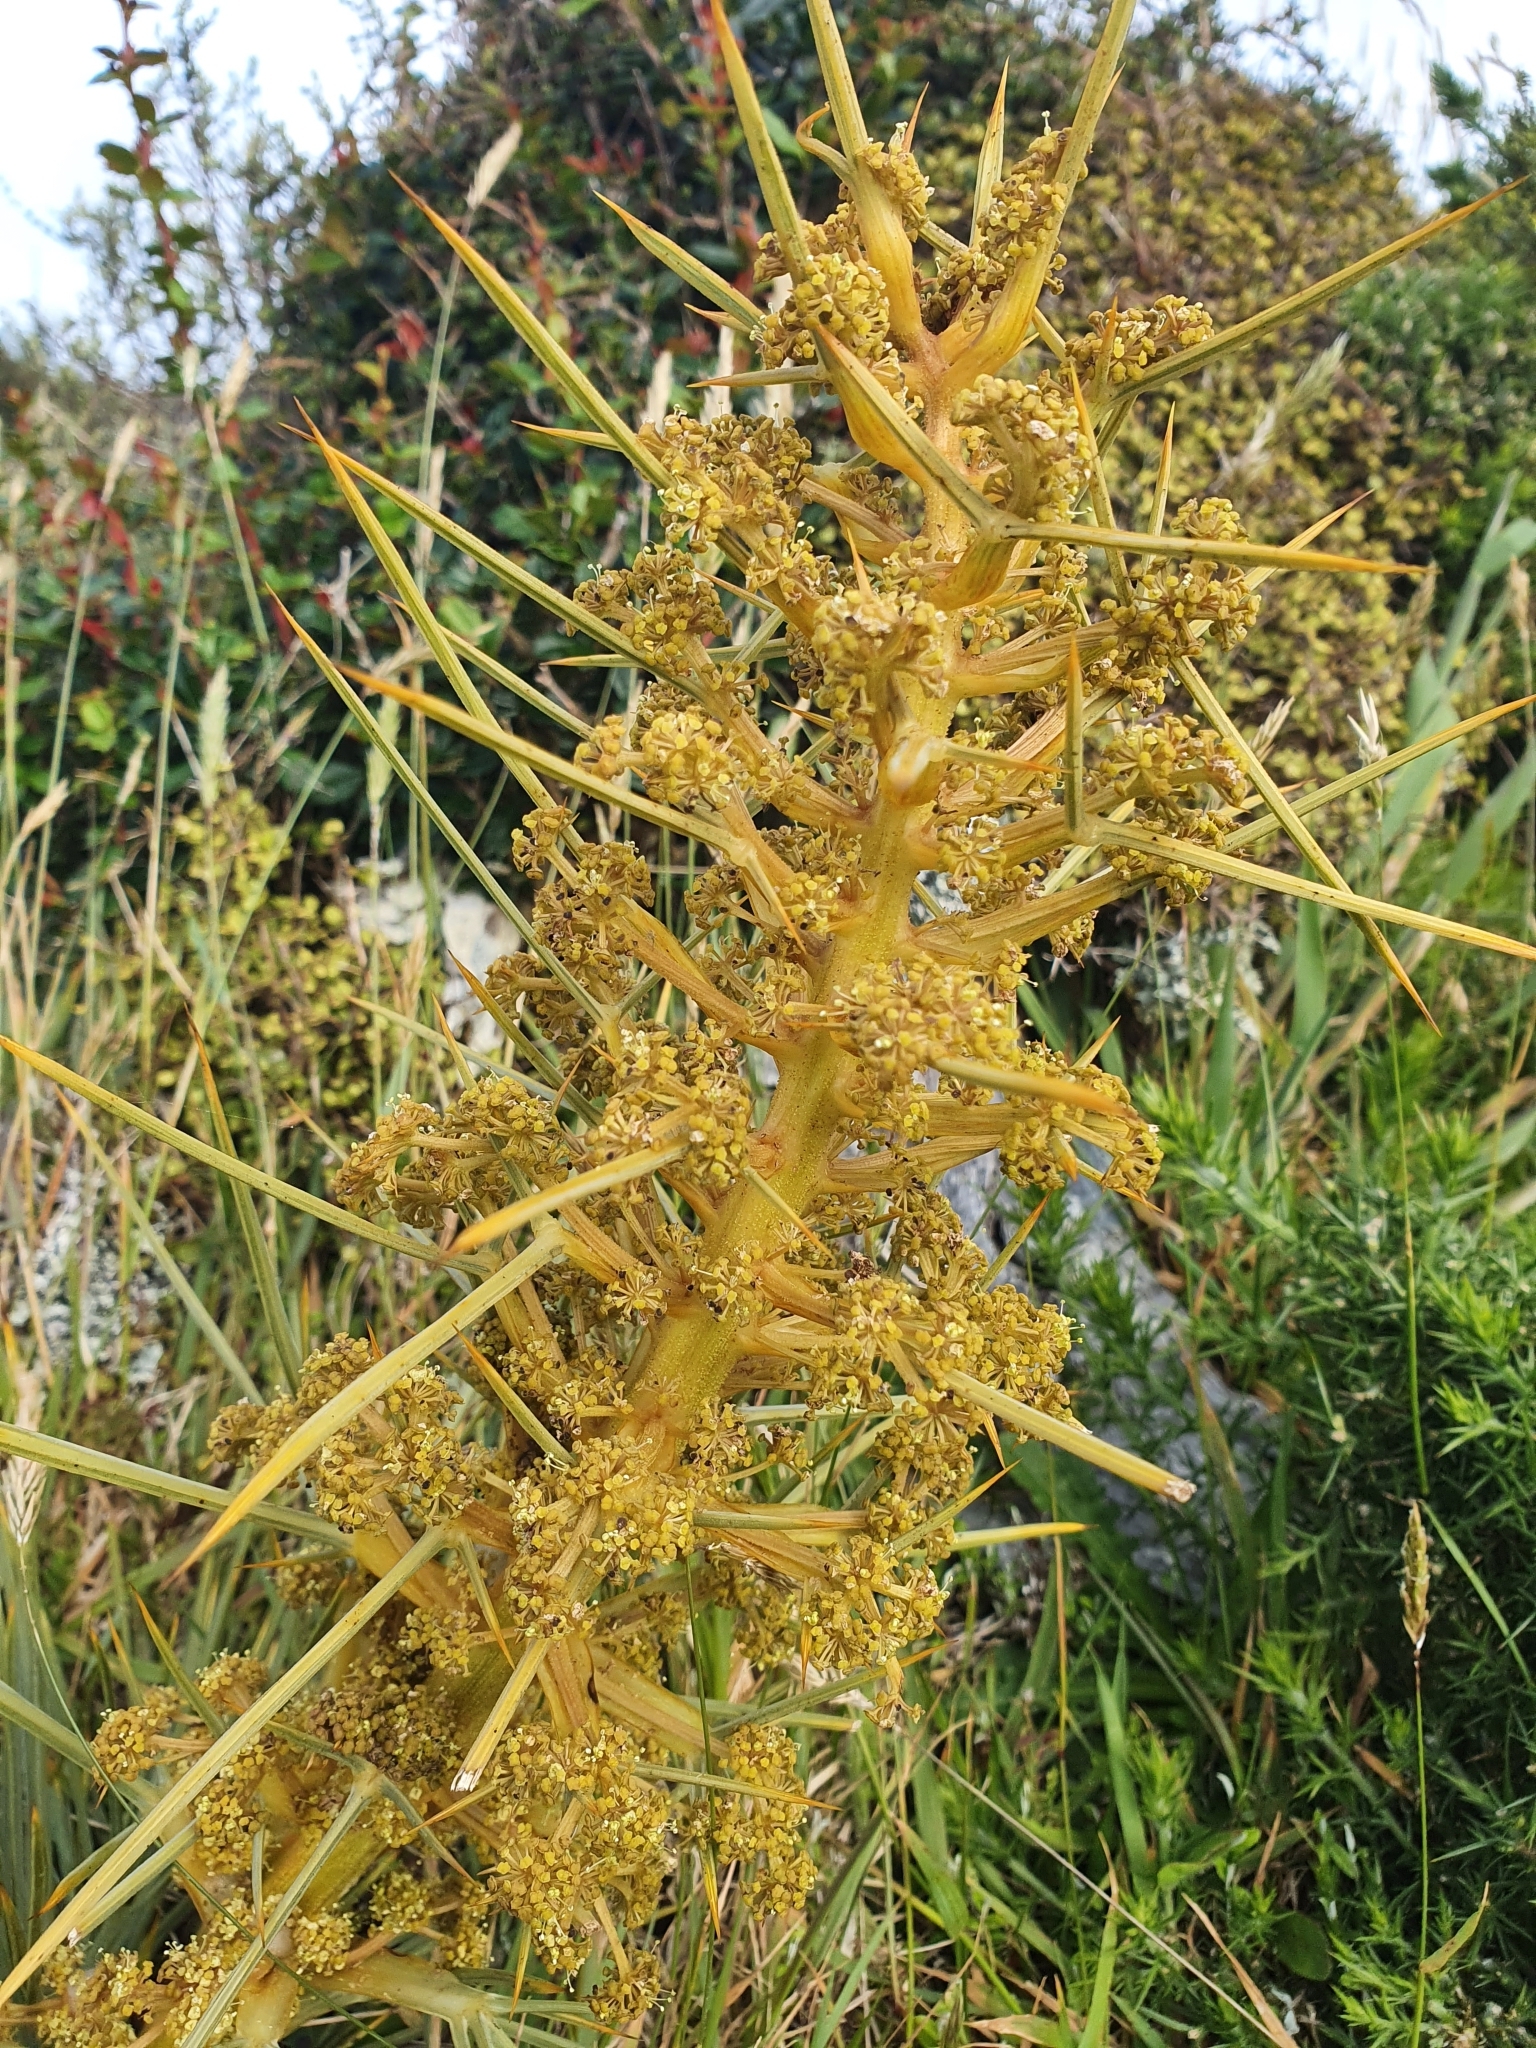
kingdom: Plantae
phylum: Tracheophyta
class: Magnoliopsida
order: Apiales
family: Apiaceae
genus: Aciphylla
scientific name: Aciphylla squarrosa
